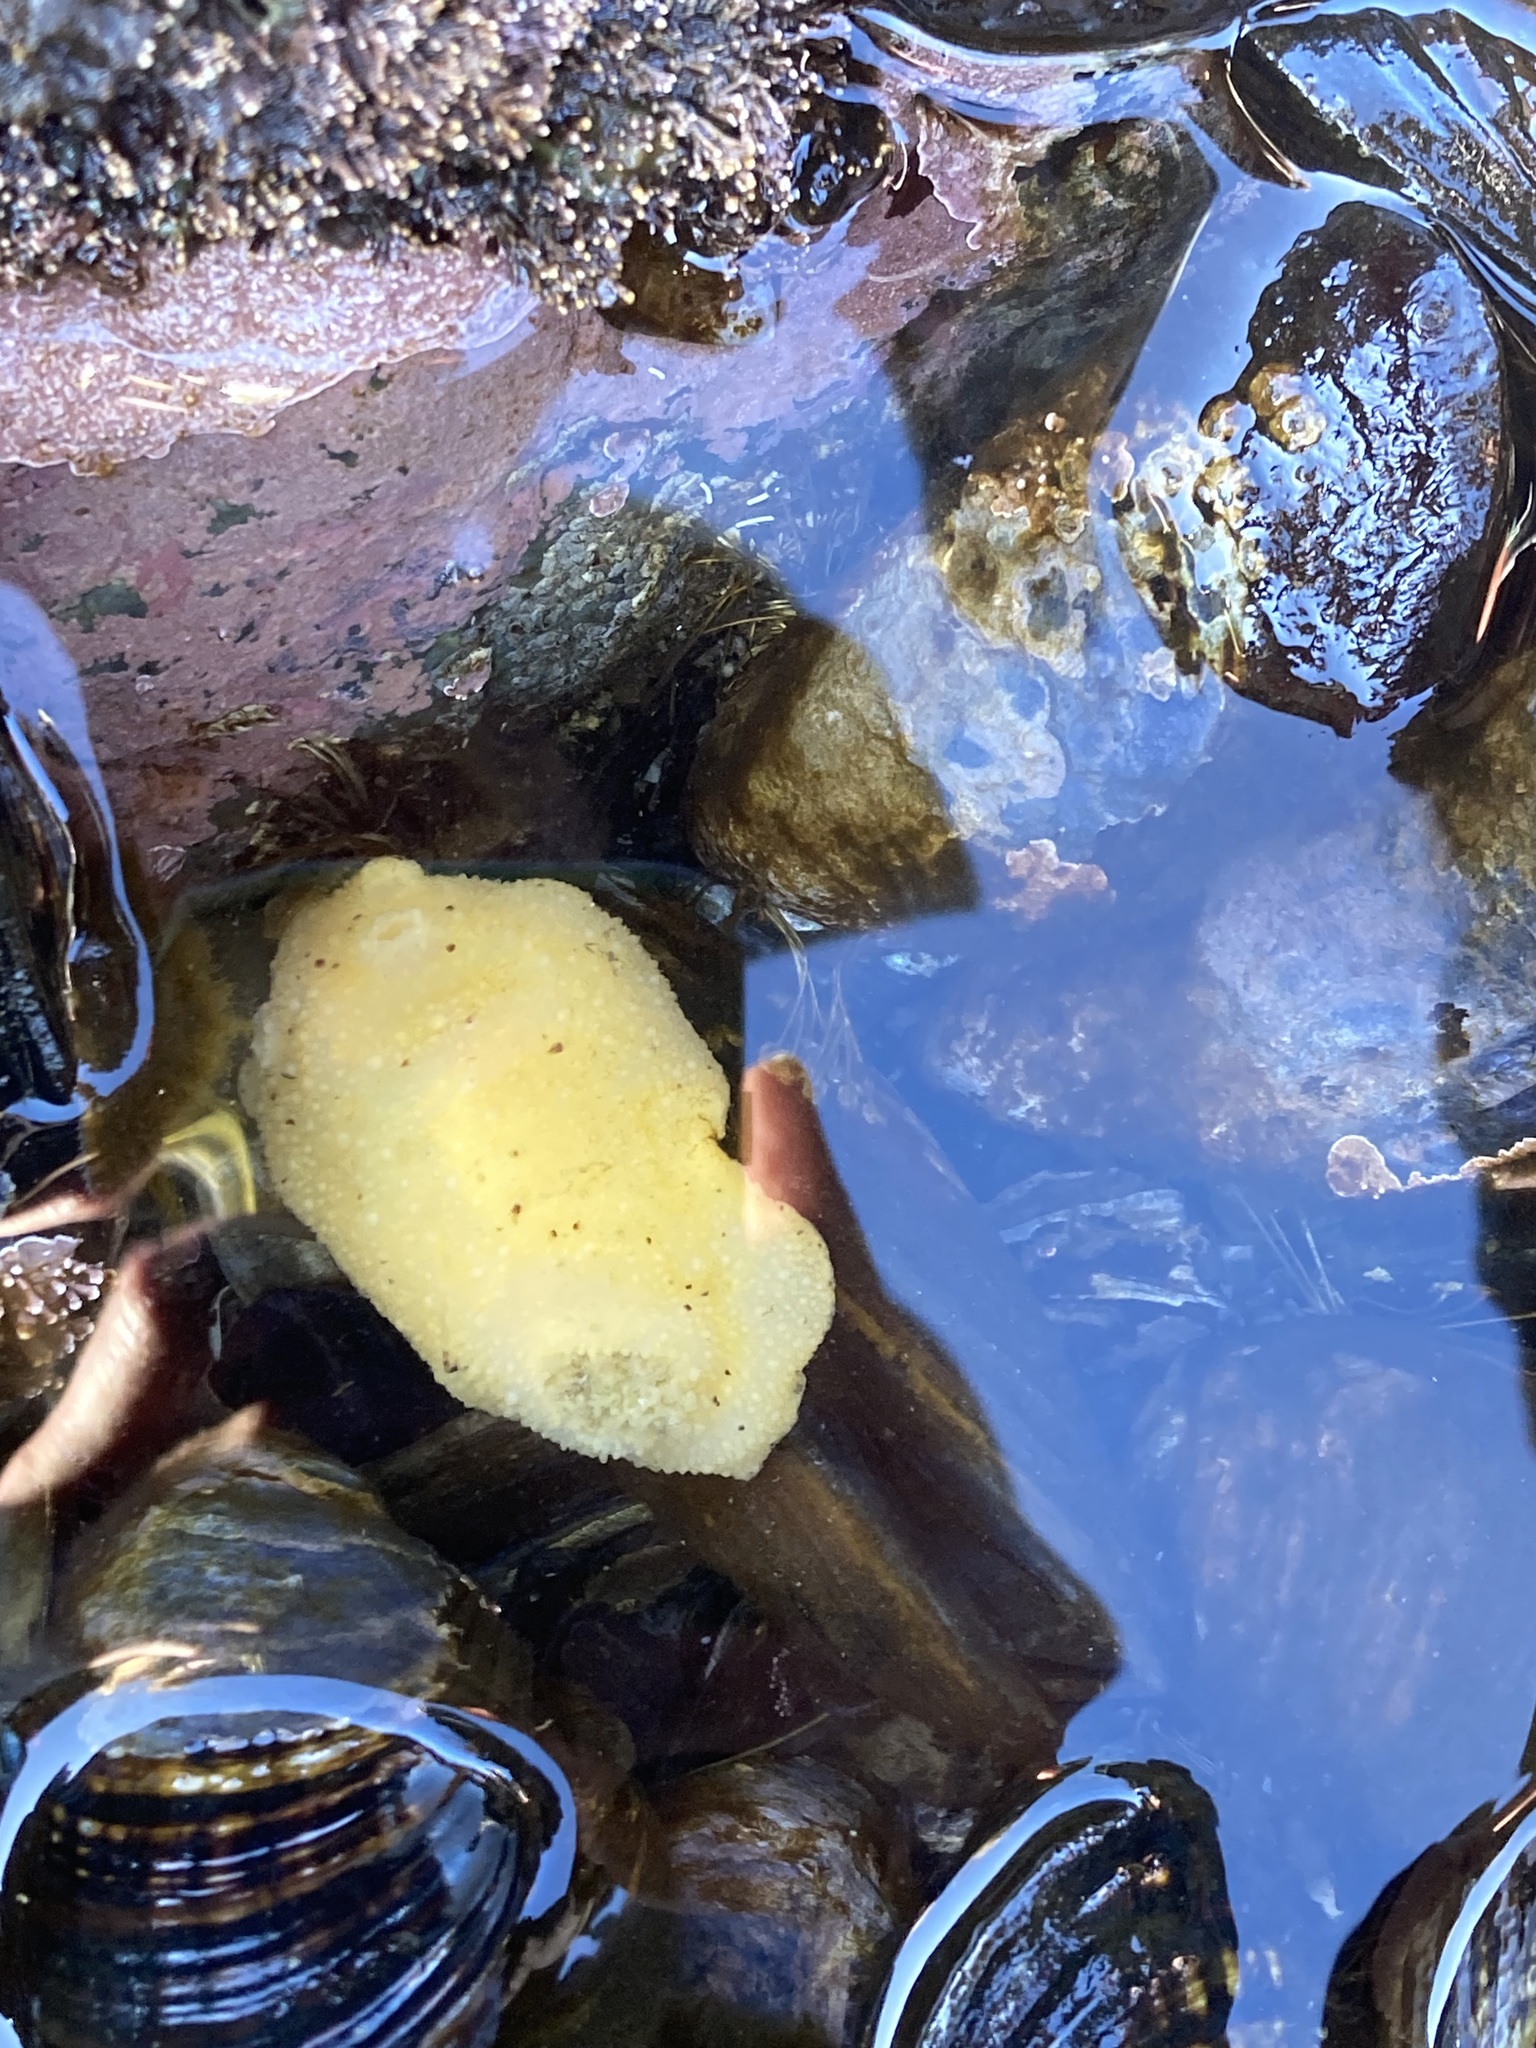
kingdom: Animalia
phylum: Mollusca
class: Gastropoda
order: Nudibranchia
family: Dorididae
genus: Doris
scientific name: Doris montereyensis
